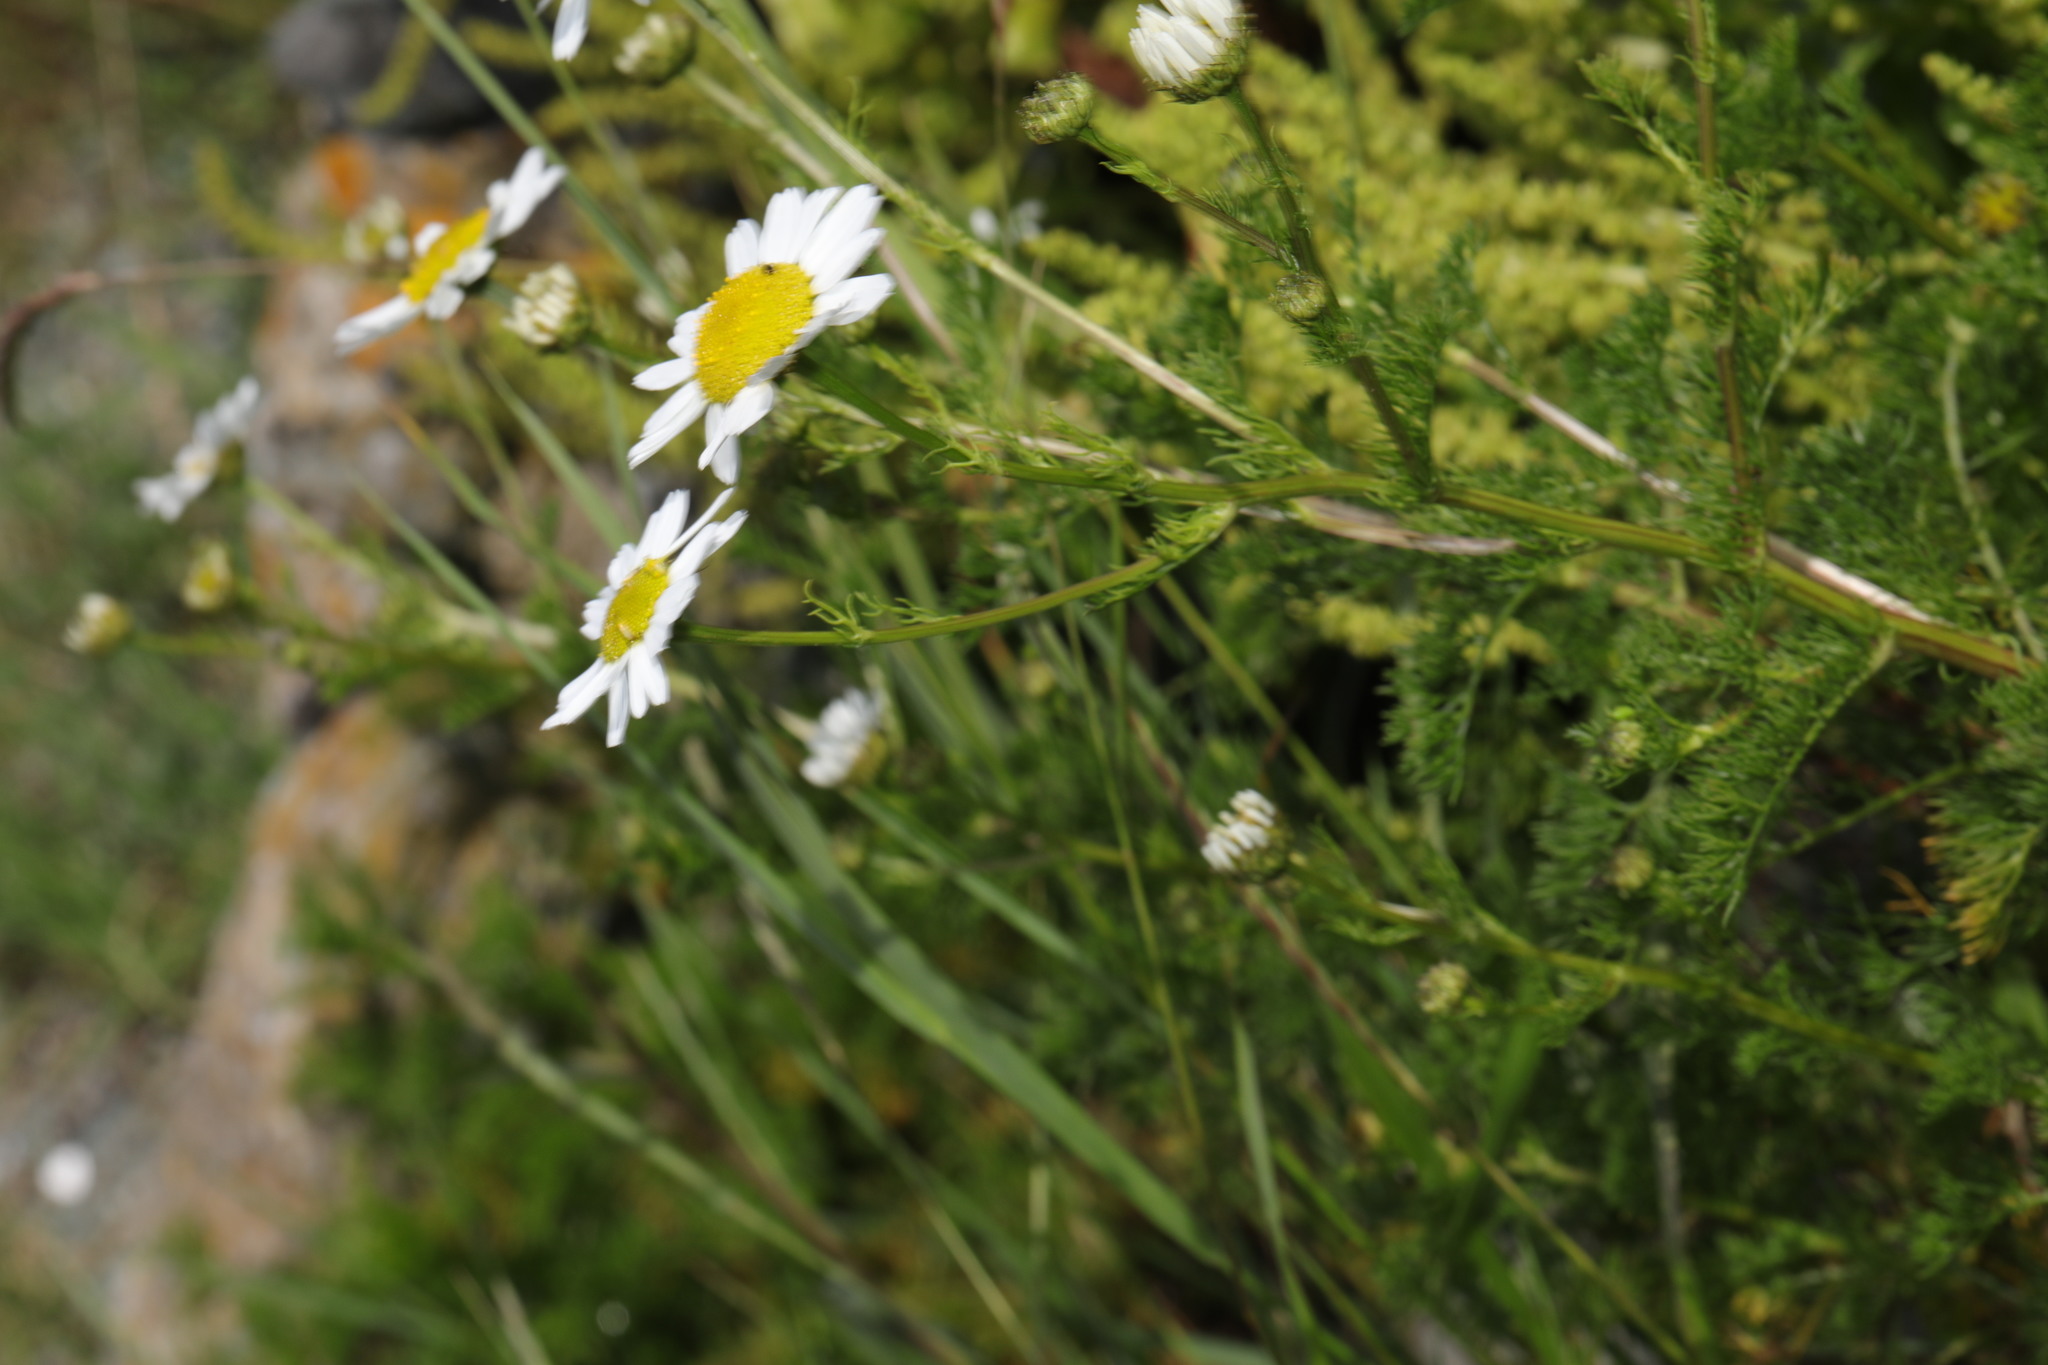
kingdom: Plantae
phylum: Tracheophyta
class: Magnoliopsida
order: Asterales
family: Asteraceae
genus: Tripleurospermum
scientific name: Tripleurospermum maritimum
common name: Sea mayweed
